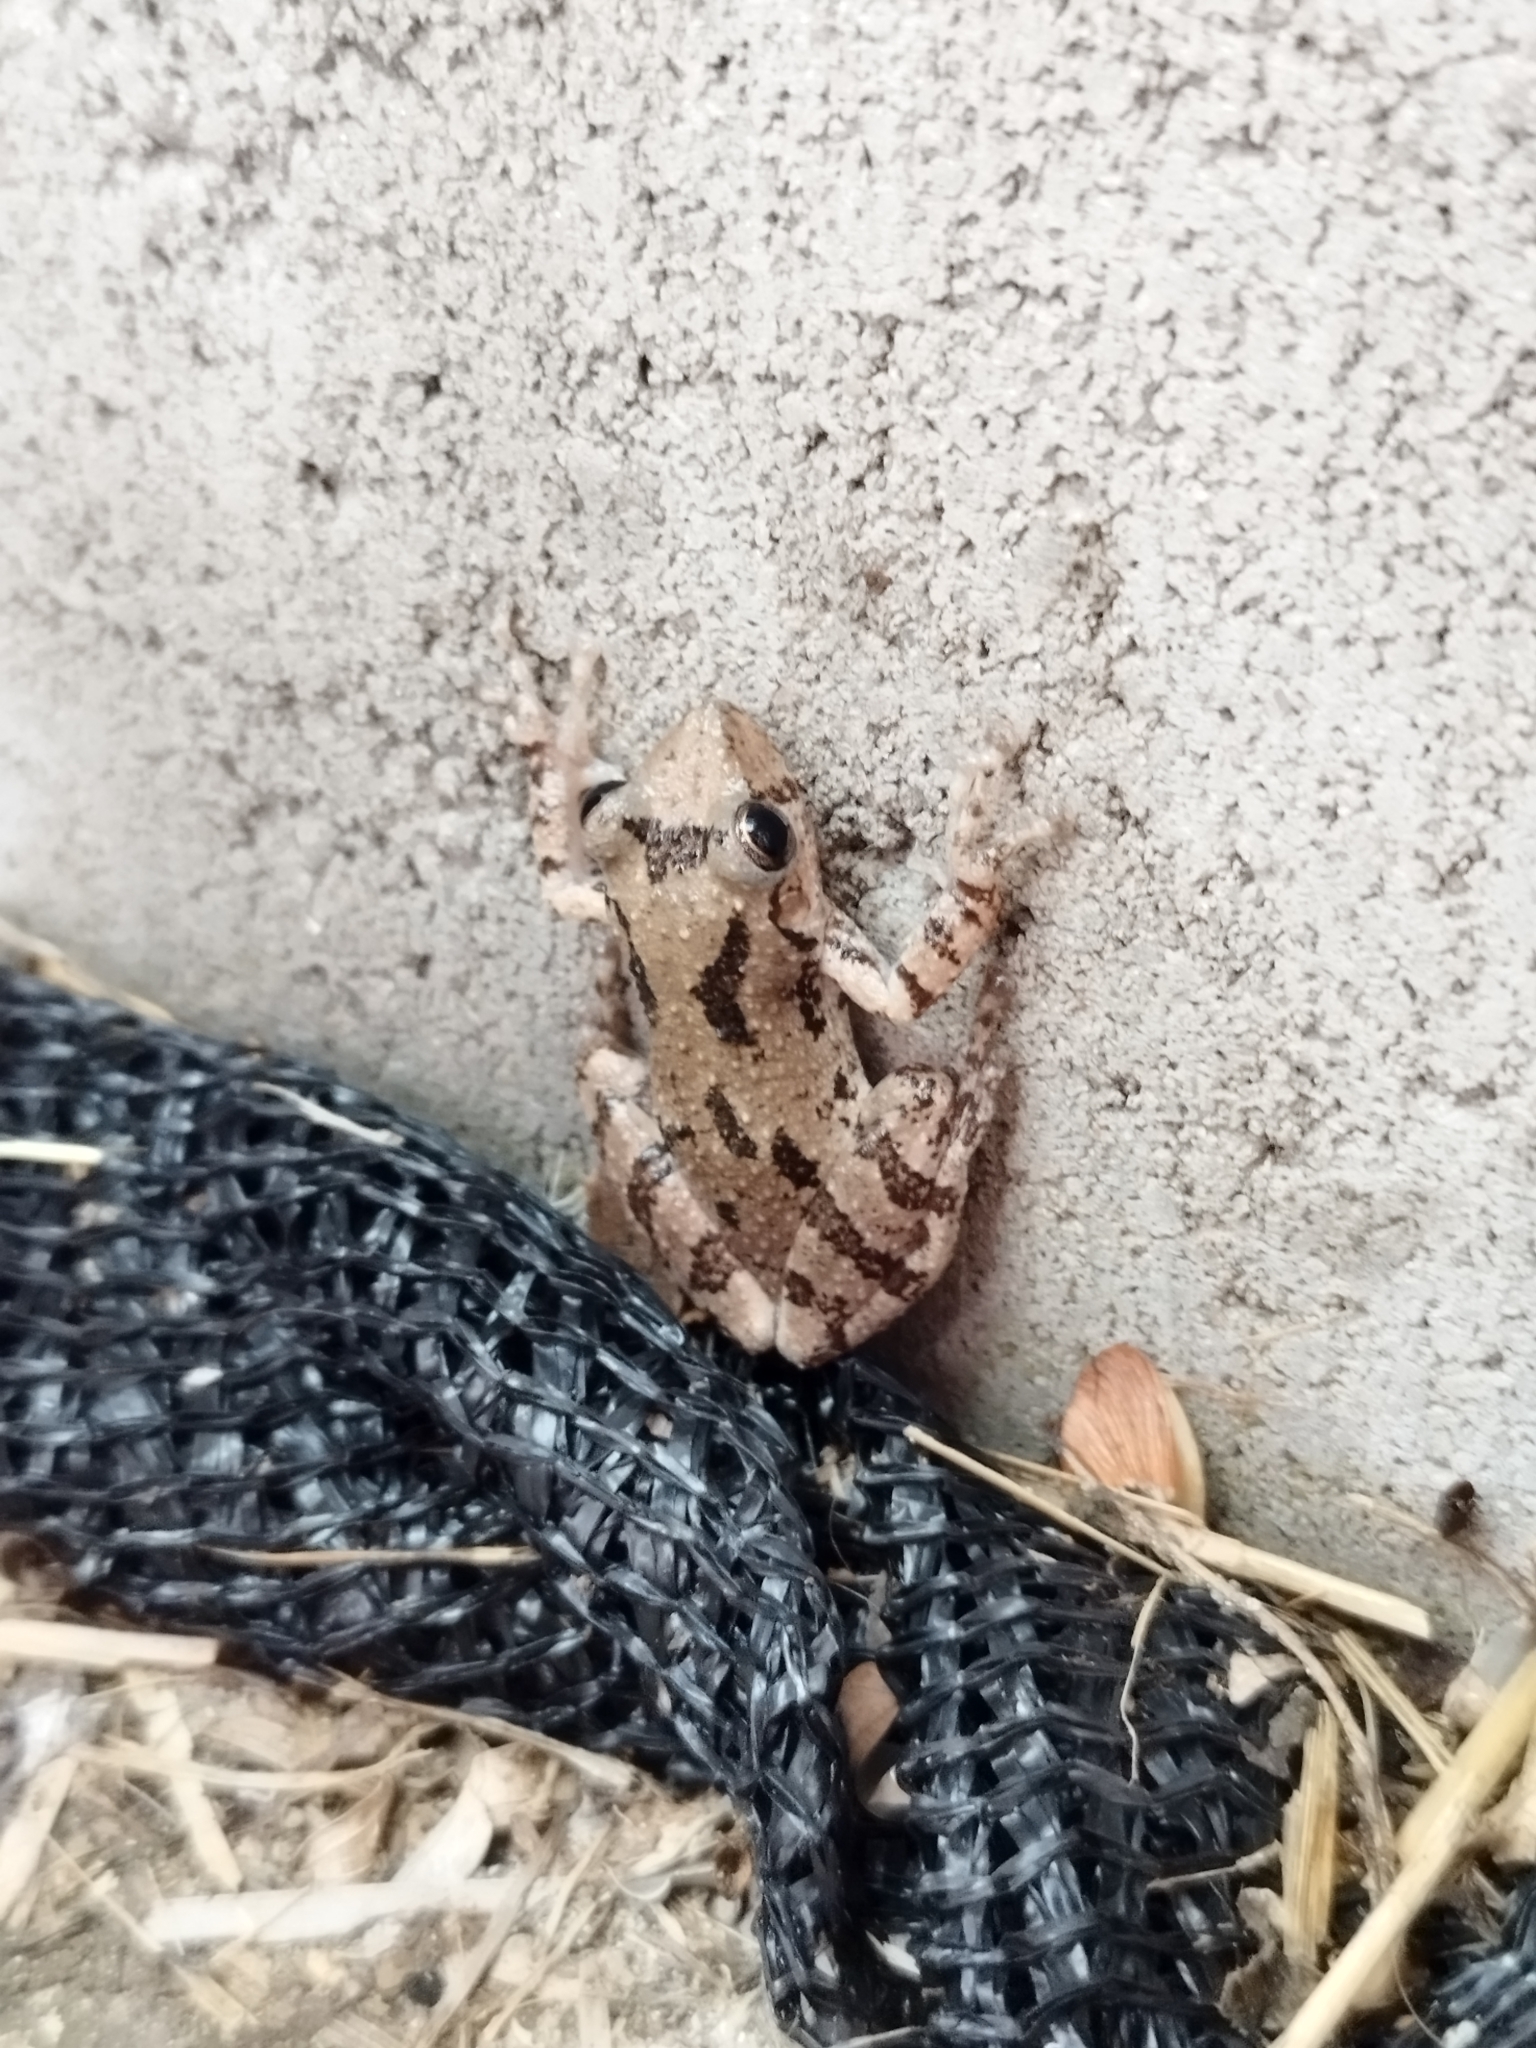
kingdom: Animalia
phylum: Chordata
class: Amphibia
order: Anura
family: Hylidae
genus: Scinax
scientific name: Scinax granulatus
